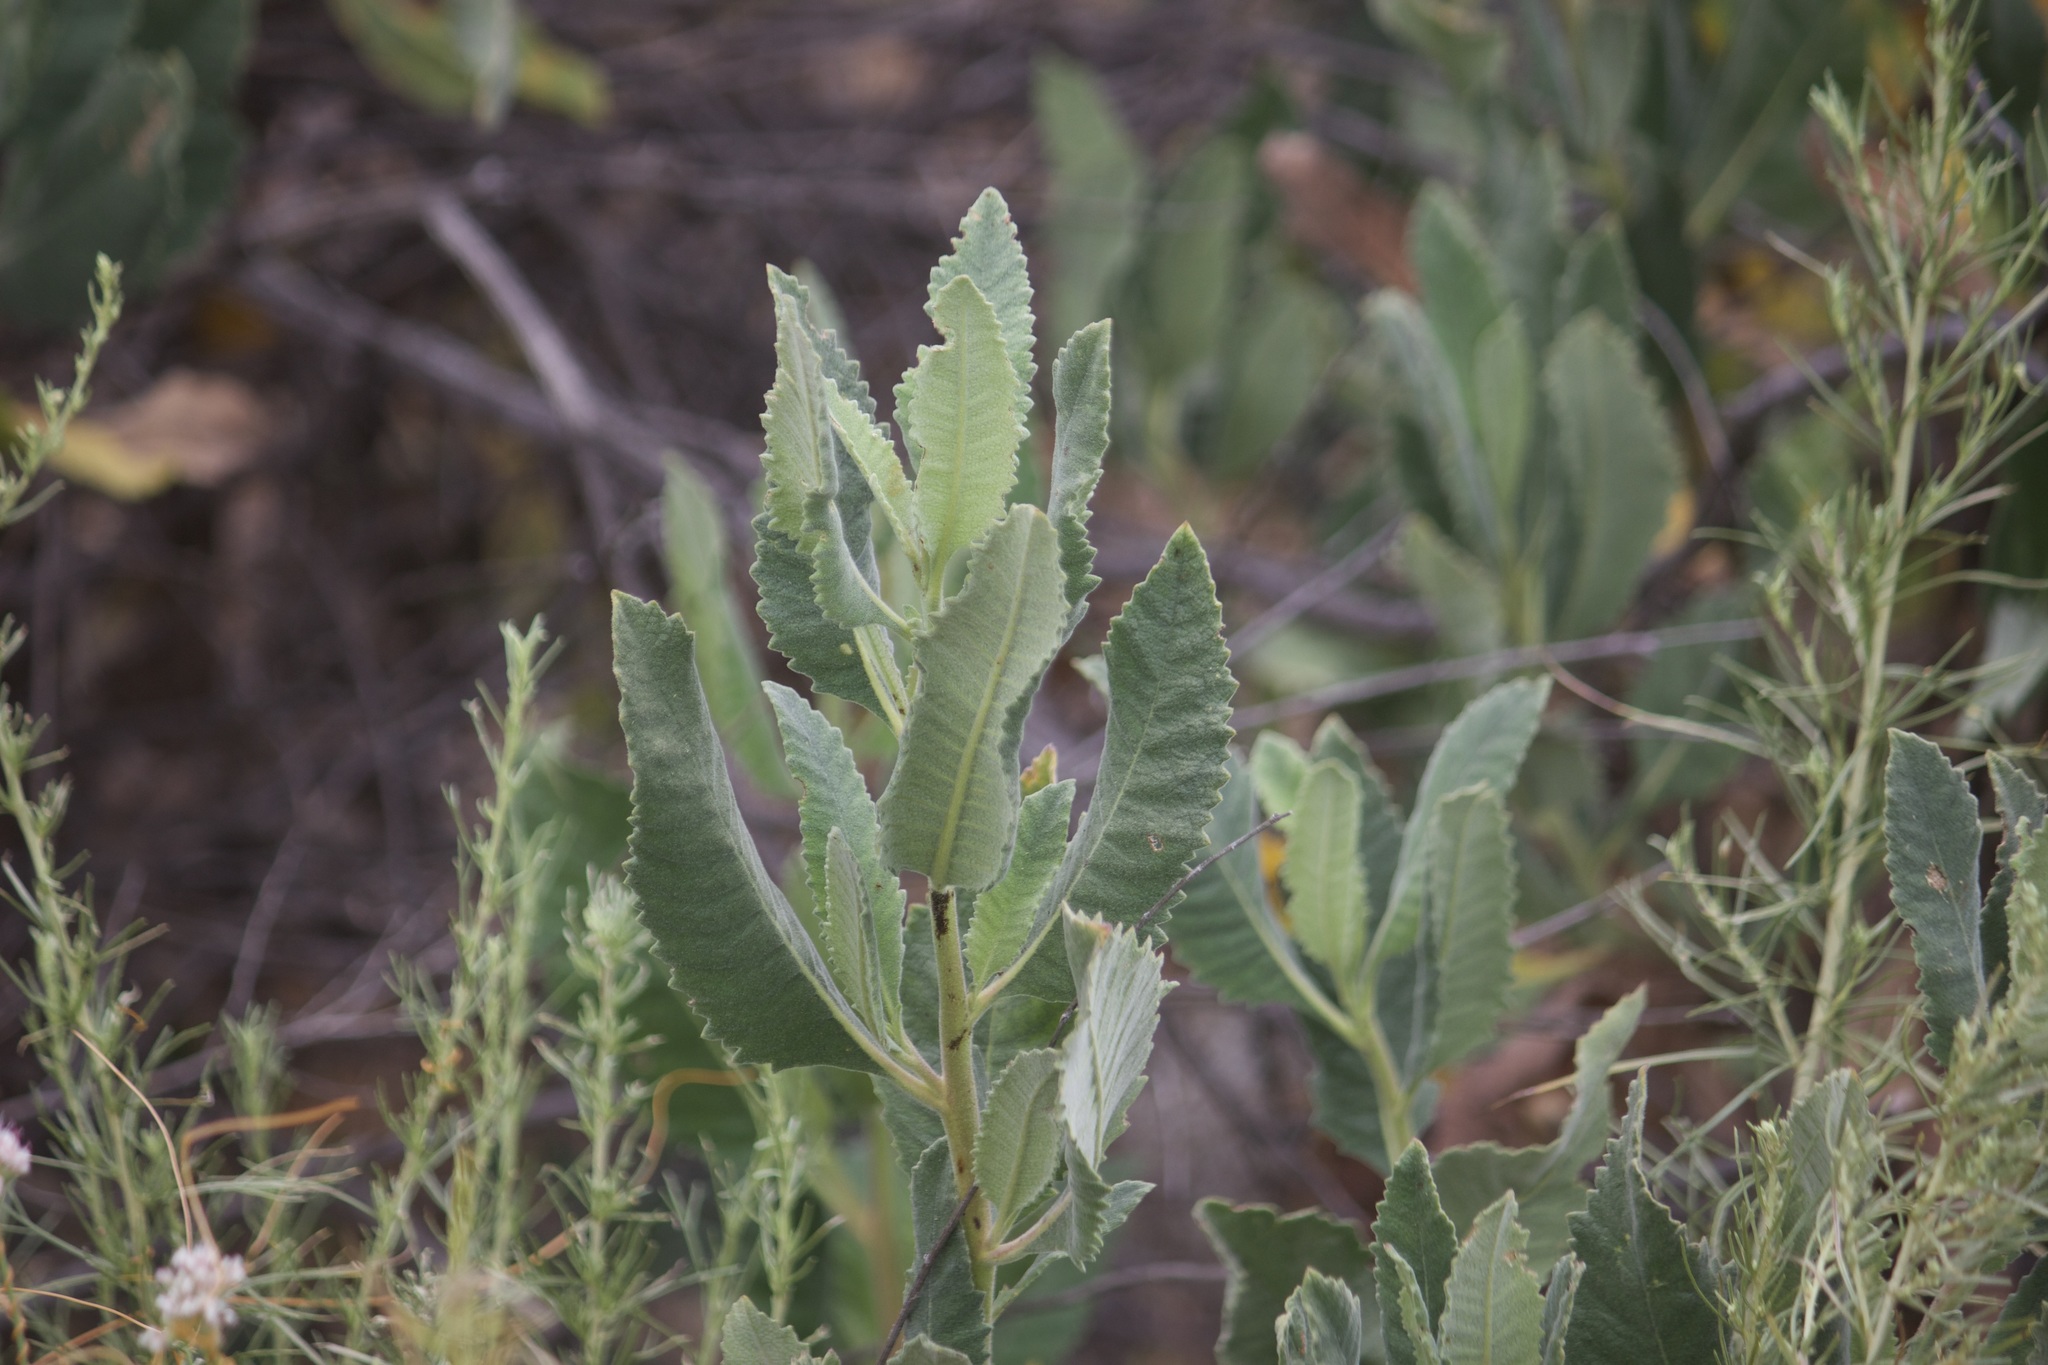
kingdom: Plantae
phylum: Tracheophyta
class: Magnoliopsida
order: Boraginales
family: Namaceae
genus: Eriodictyon
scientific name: Eriodictyon crassifolium
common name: Thick-leaf yerba-santa
